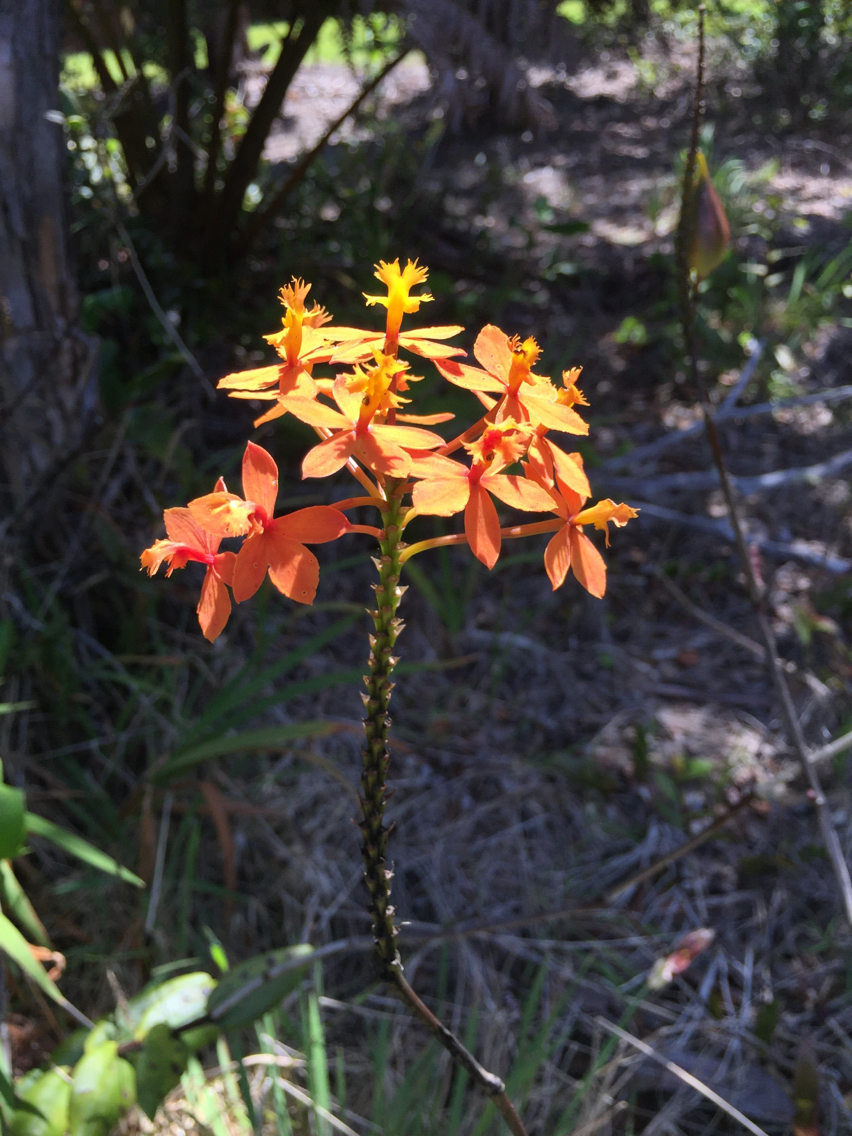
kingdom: Plantae
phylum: Tracheophyta
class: Liliopsida
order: Asparagales
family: Orchidaceae
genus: Epidendrum
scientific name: Epidendrum obrienianum
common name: O'brien's star orchid
